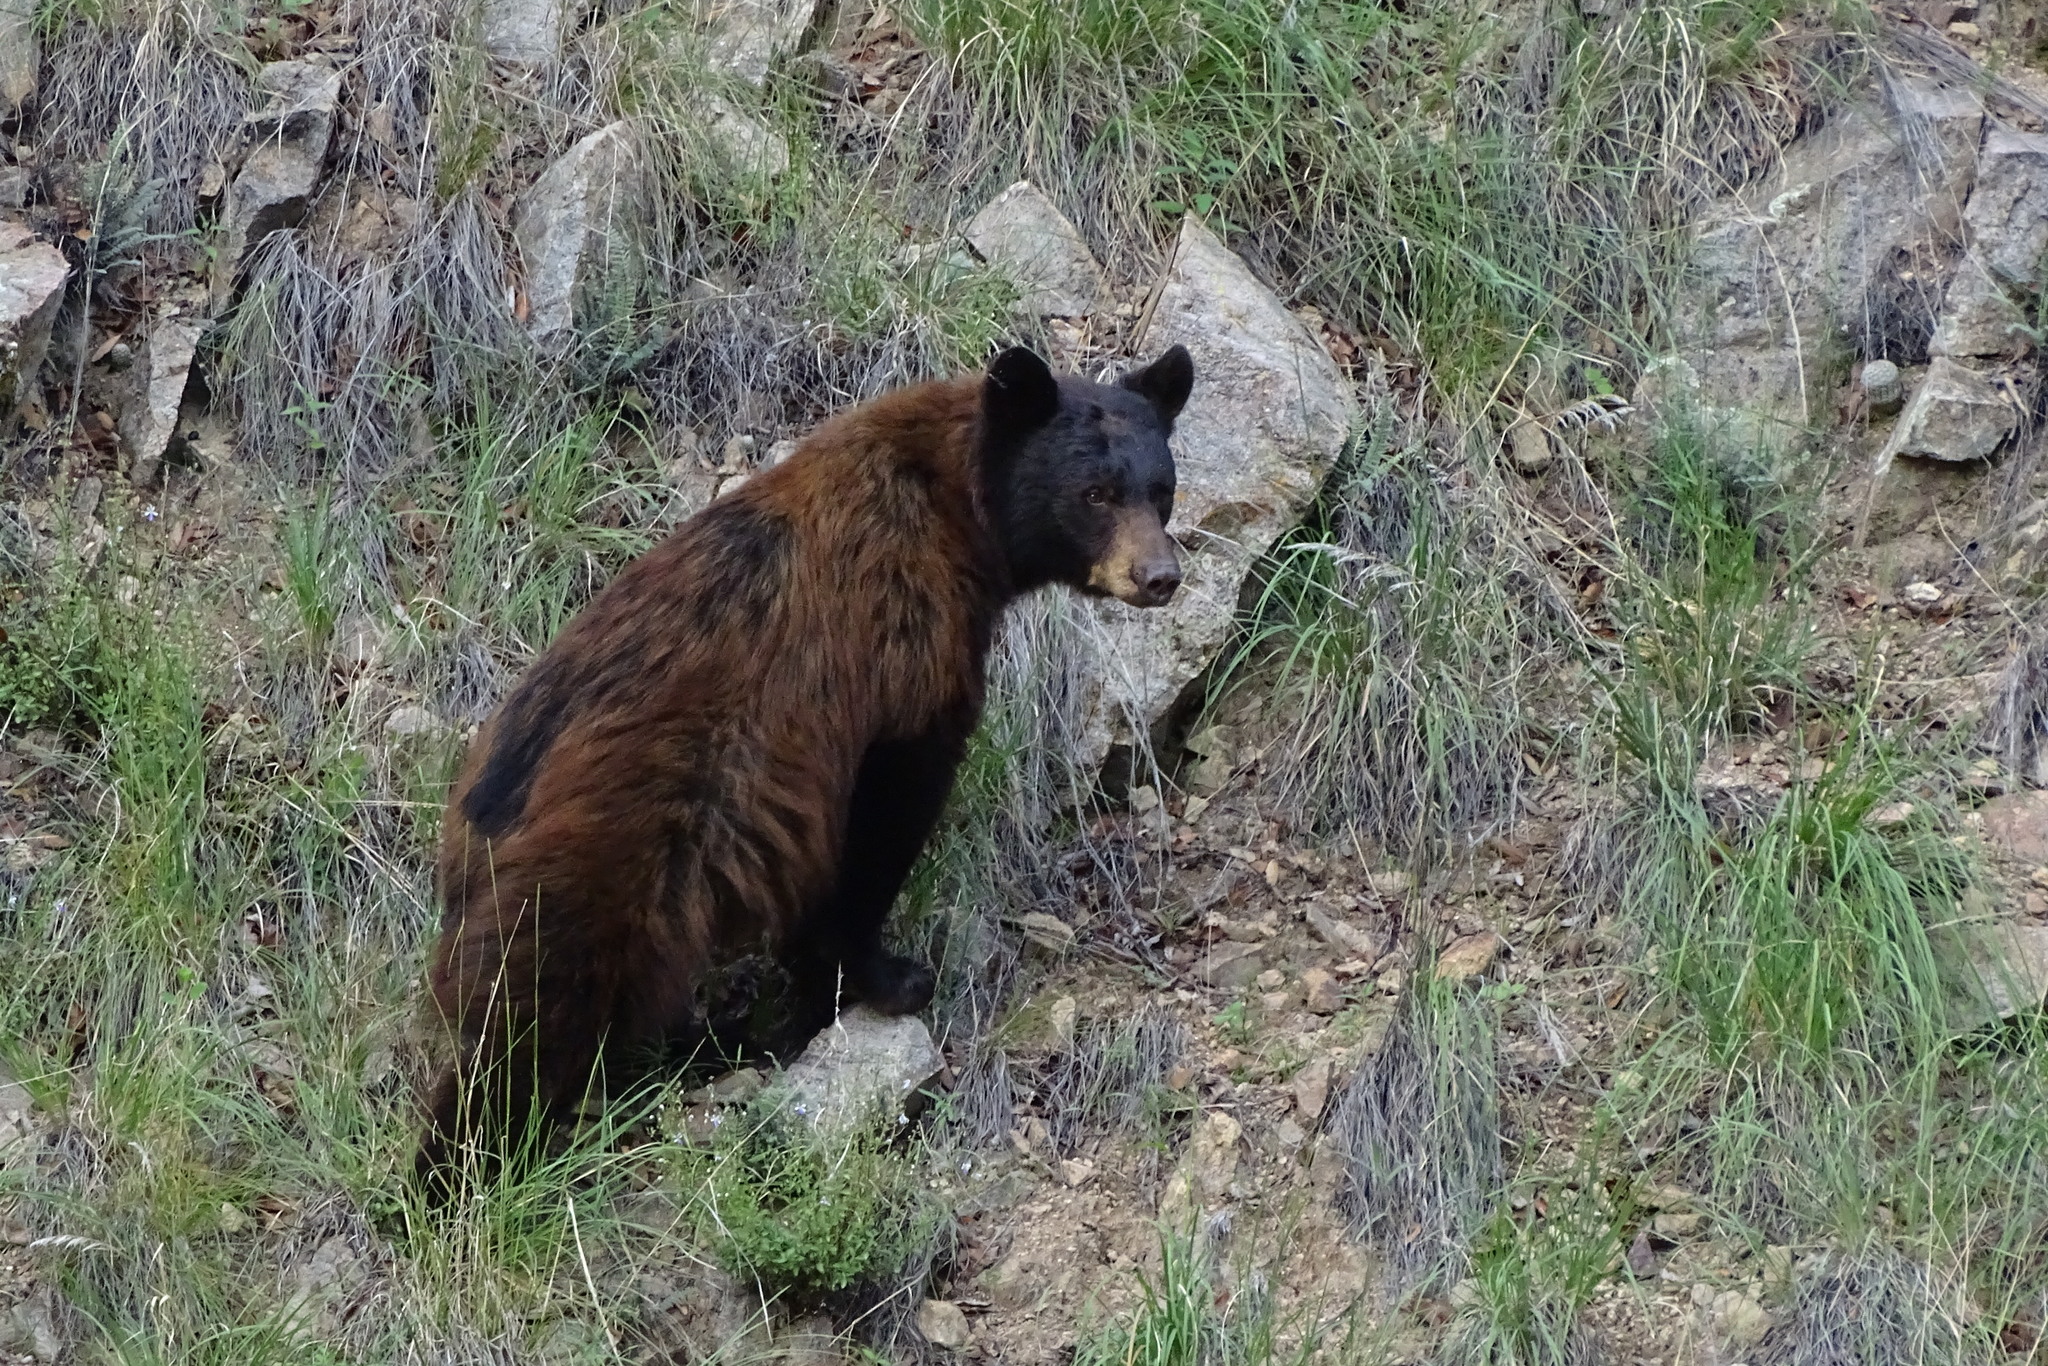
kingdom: Animalia
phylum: Chordata
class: Mammalia
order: Carnivora
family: Ursidae
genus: Ursus
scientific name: Ursus americanus
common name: American black bear
